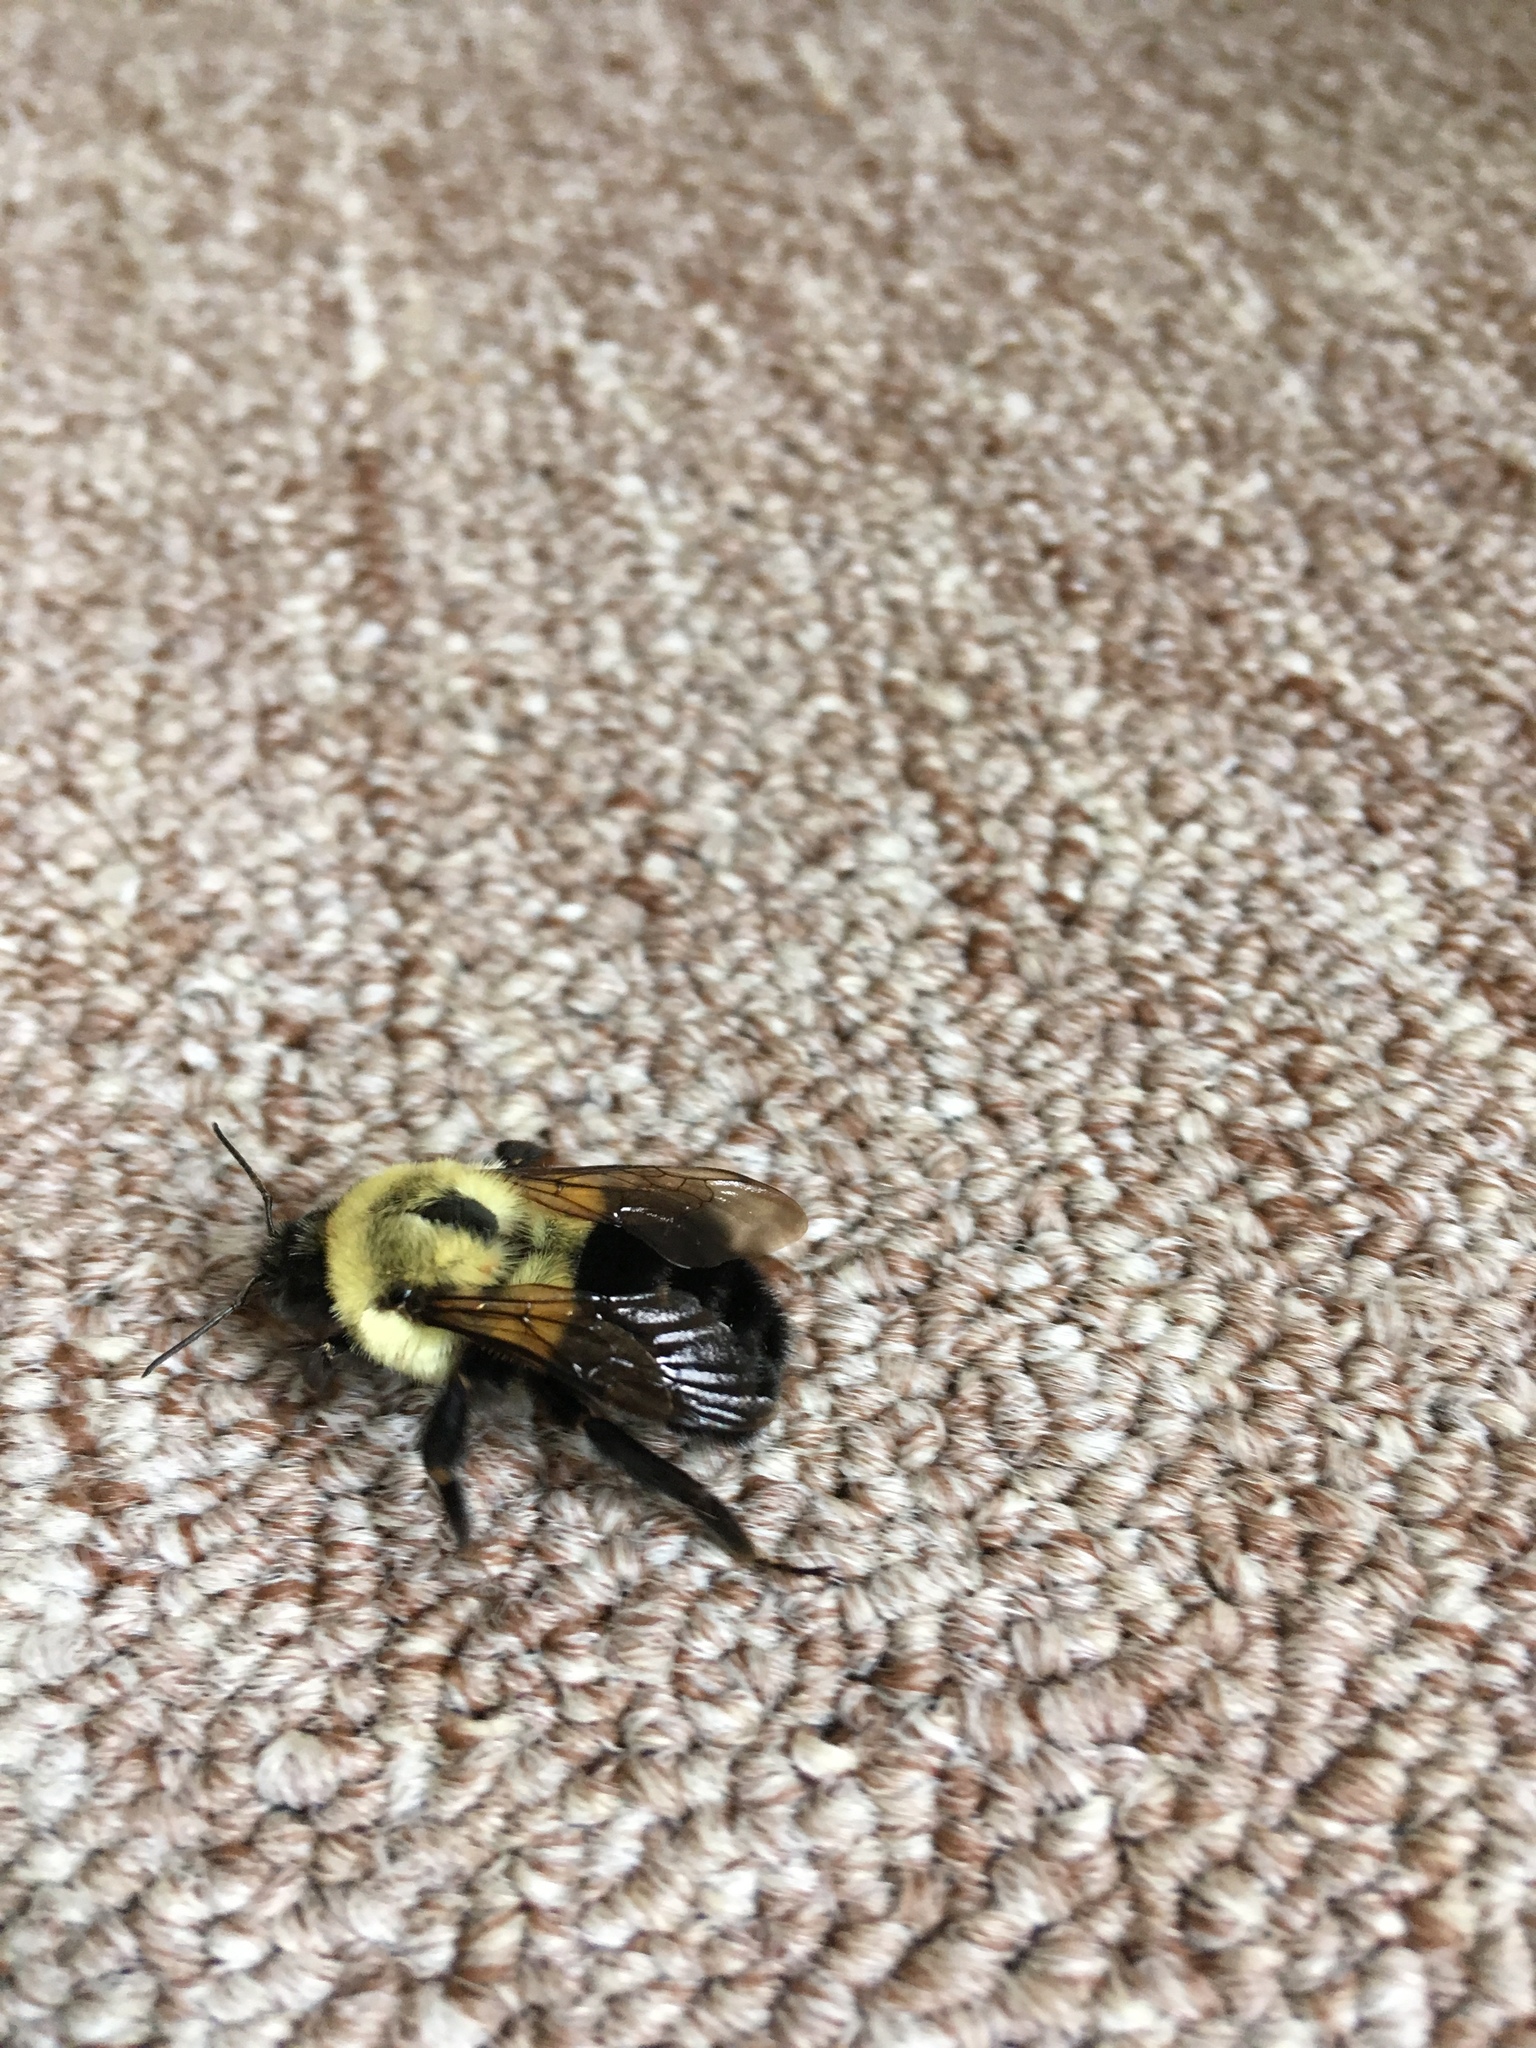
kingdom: Animalia
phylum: Arthropoda
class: Insecta
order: Hymenoptera
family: Apidae
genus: Bombus
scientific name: Bombus impatiens
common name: Common eastern bumble bee
